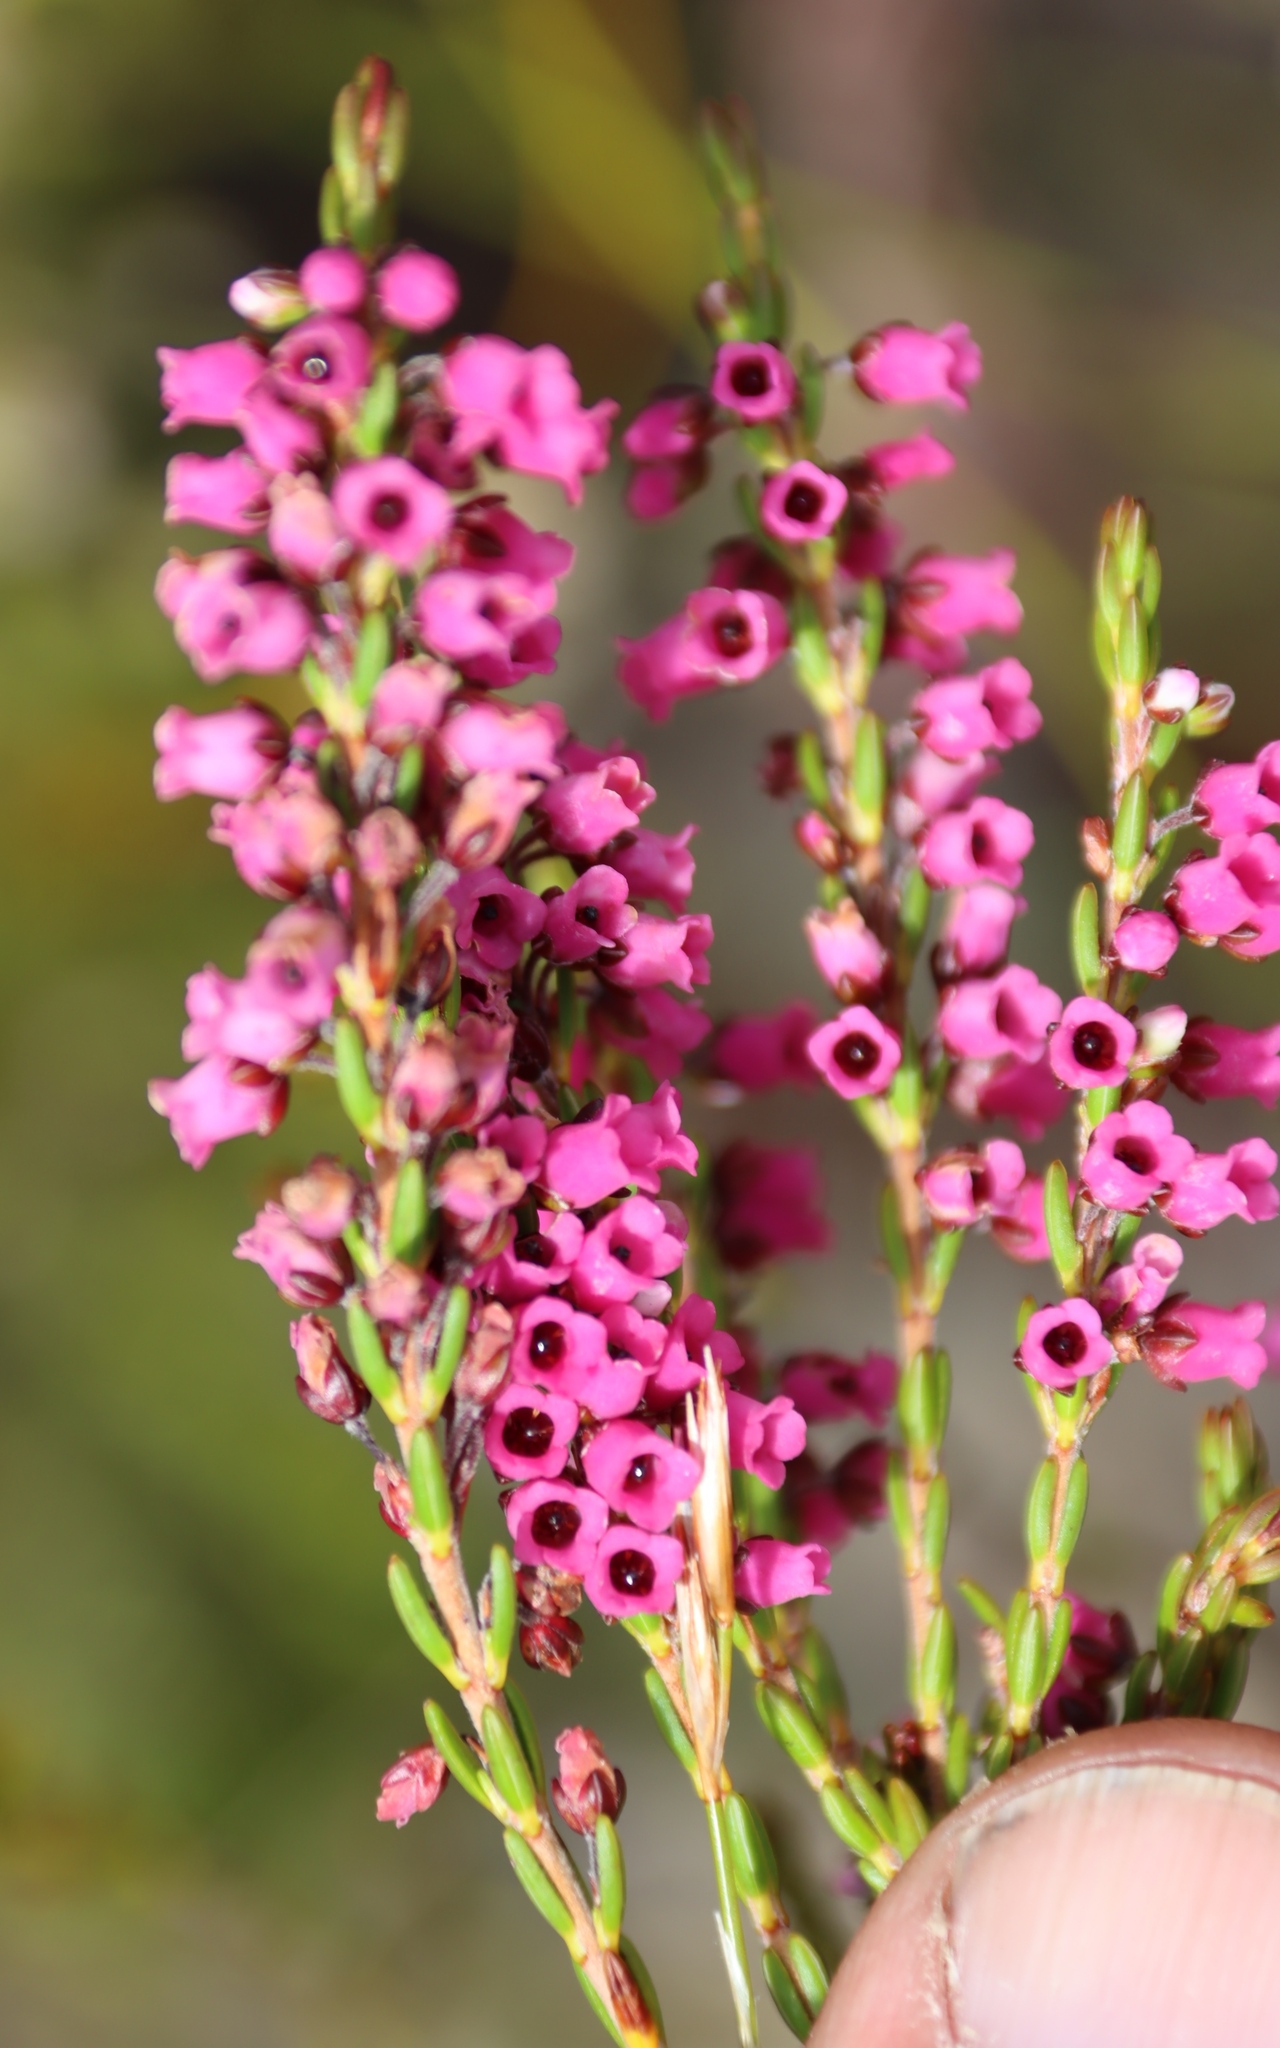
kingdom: Plantae
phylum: Tracheophyta
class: Magnoliopsida
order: Ericales
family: Ericaceae
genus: Erica
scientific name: Erica pulchella
